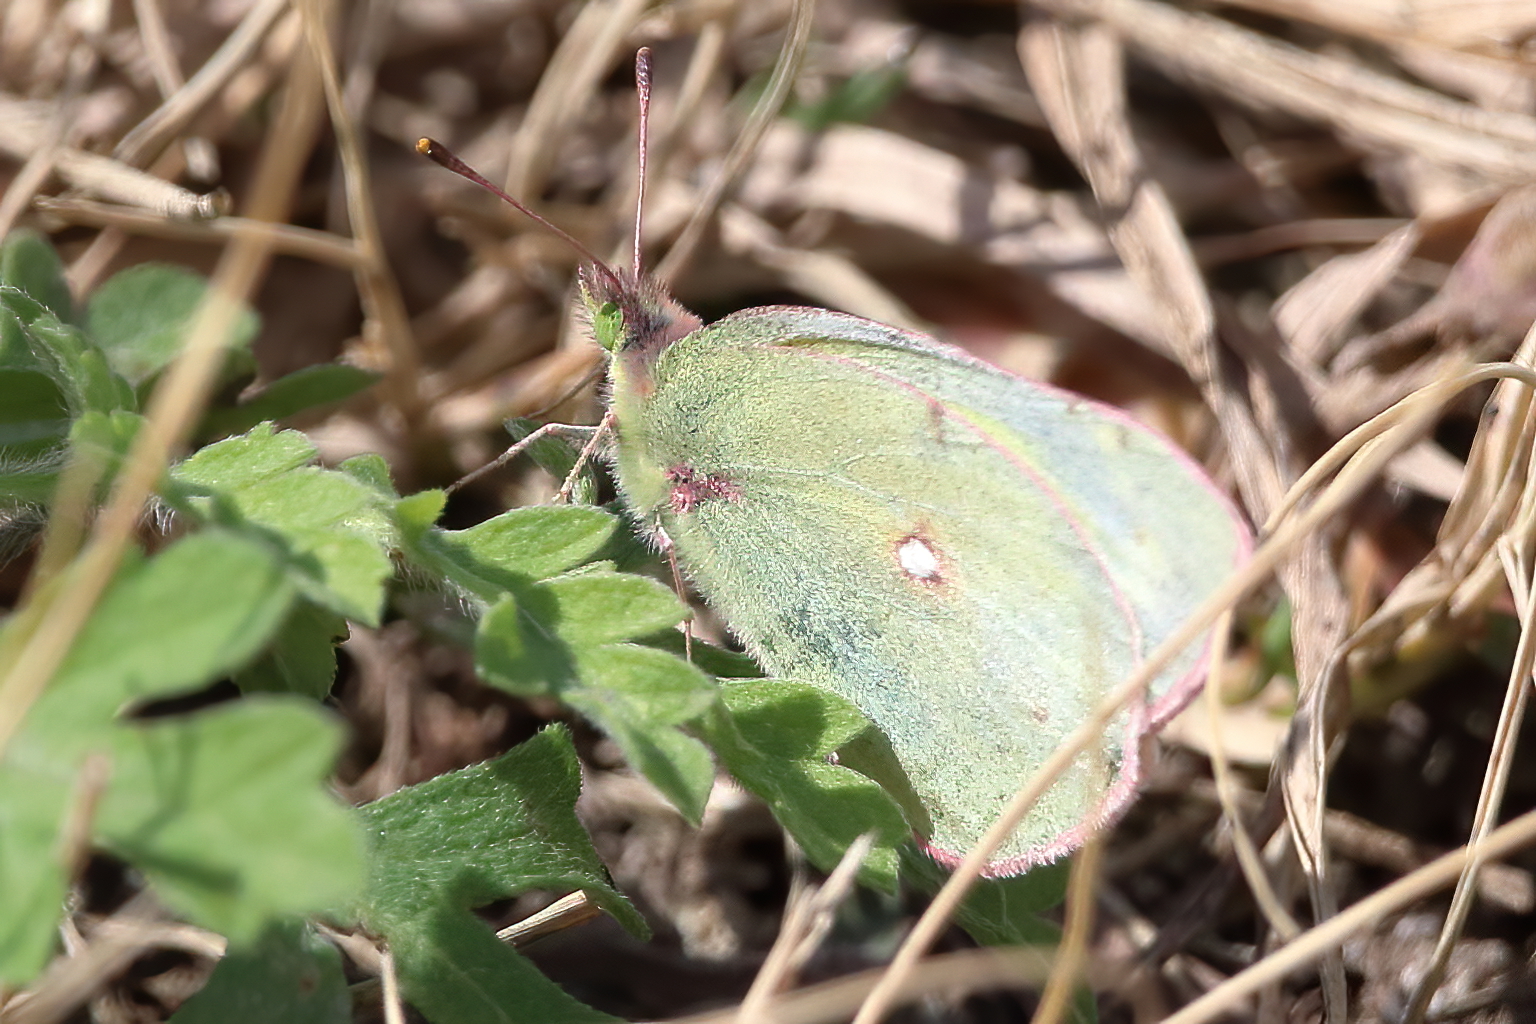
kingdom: Animalia
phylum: Arthropoda
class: Insecta
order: Lepidoptera
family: Pieridae
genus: Colias
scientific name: Colias eurytheme
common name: Alfalfa butterfly
